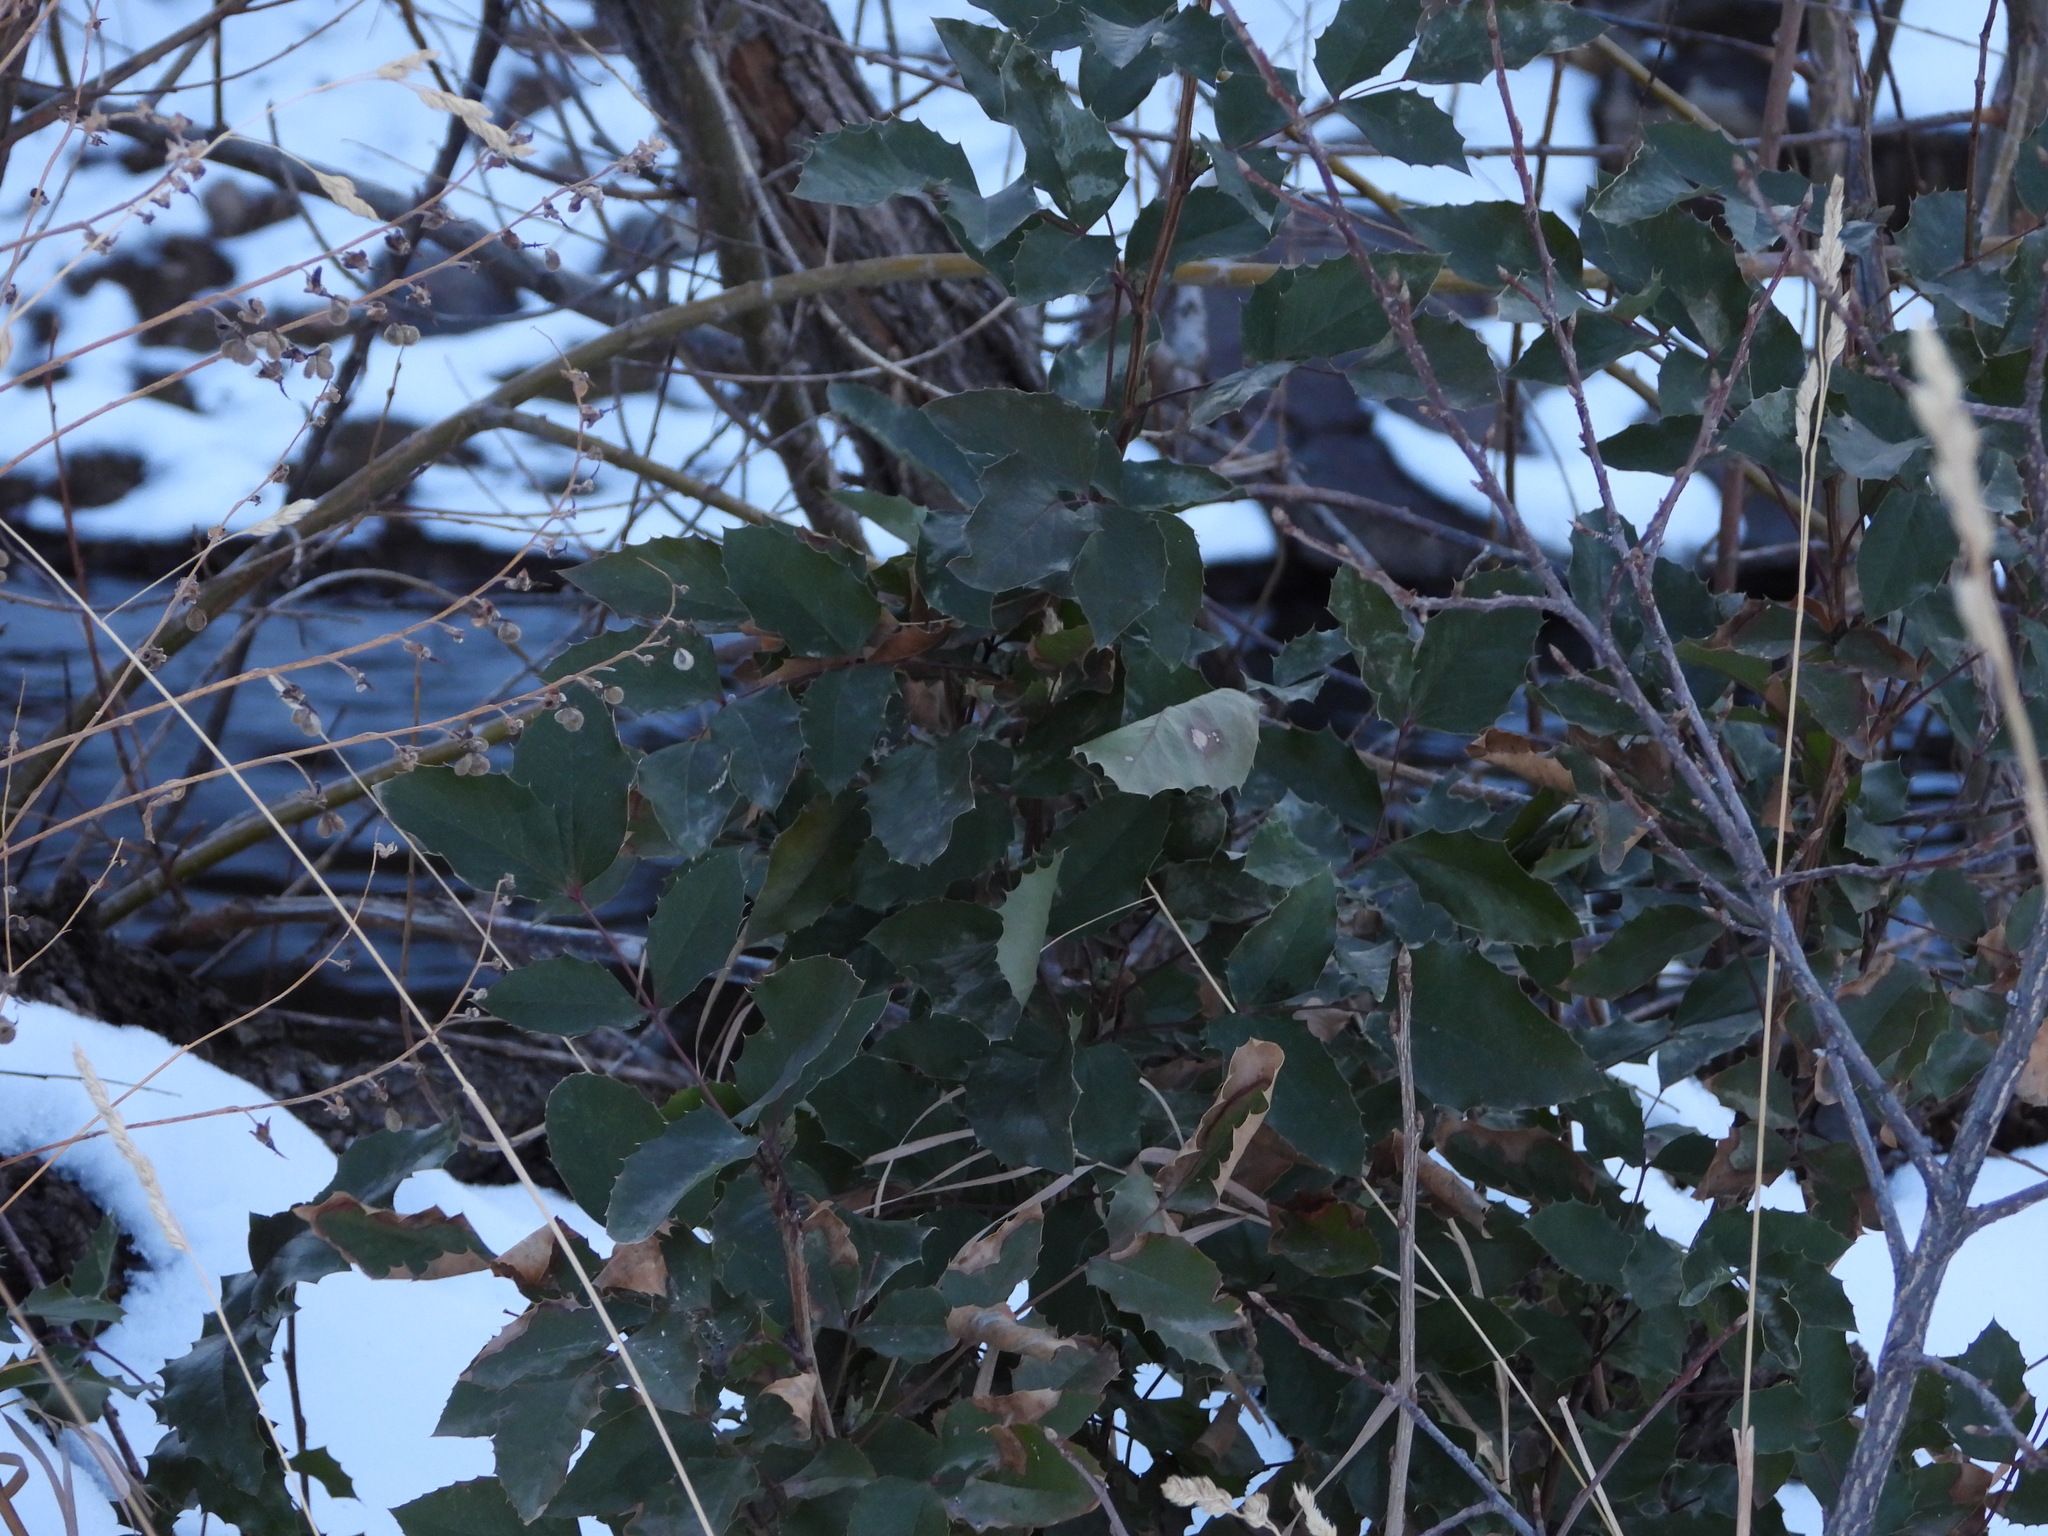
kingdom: Plantae
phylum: Tracheophyta
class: Magnoliopsida
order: Ranunculales
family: Berberidaceae
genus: Mahonia
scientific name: Mahonia aquifolium
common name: Oregon-grape
